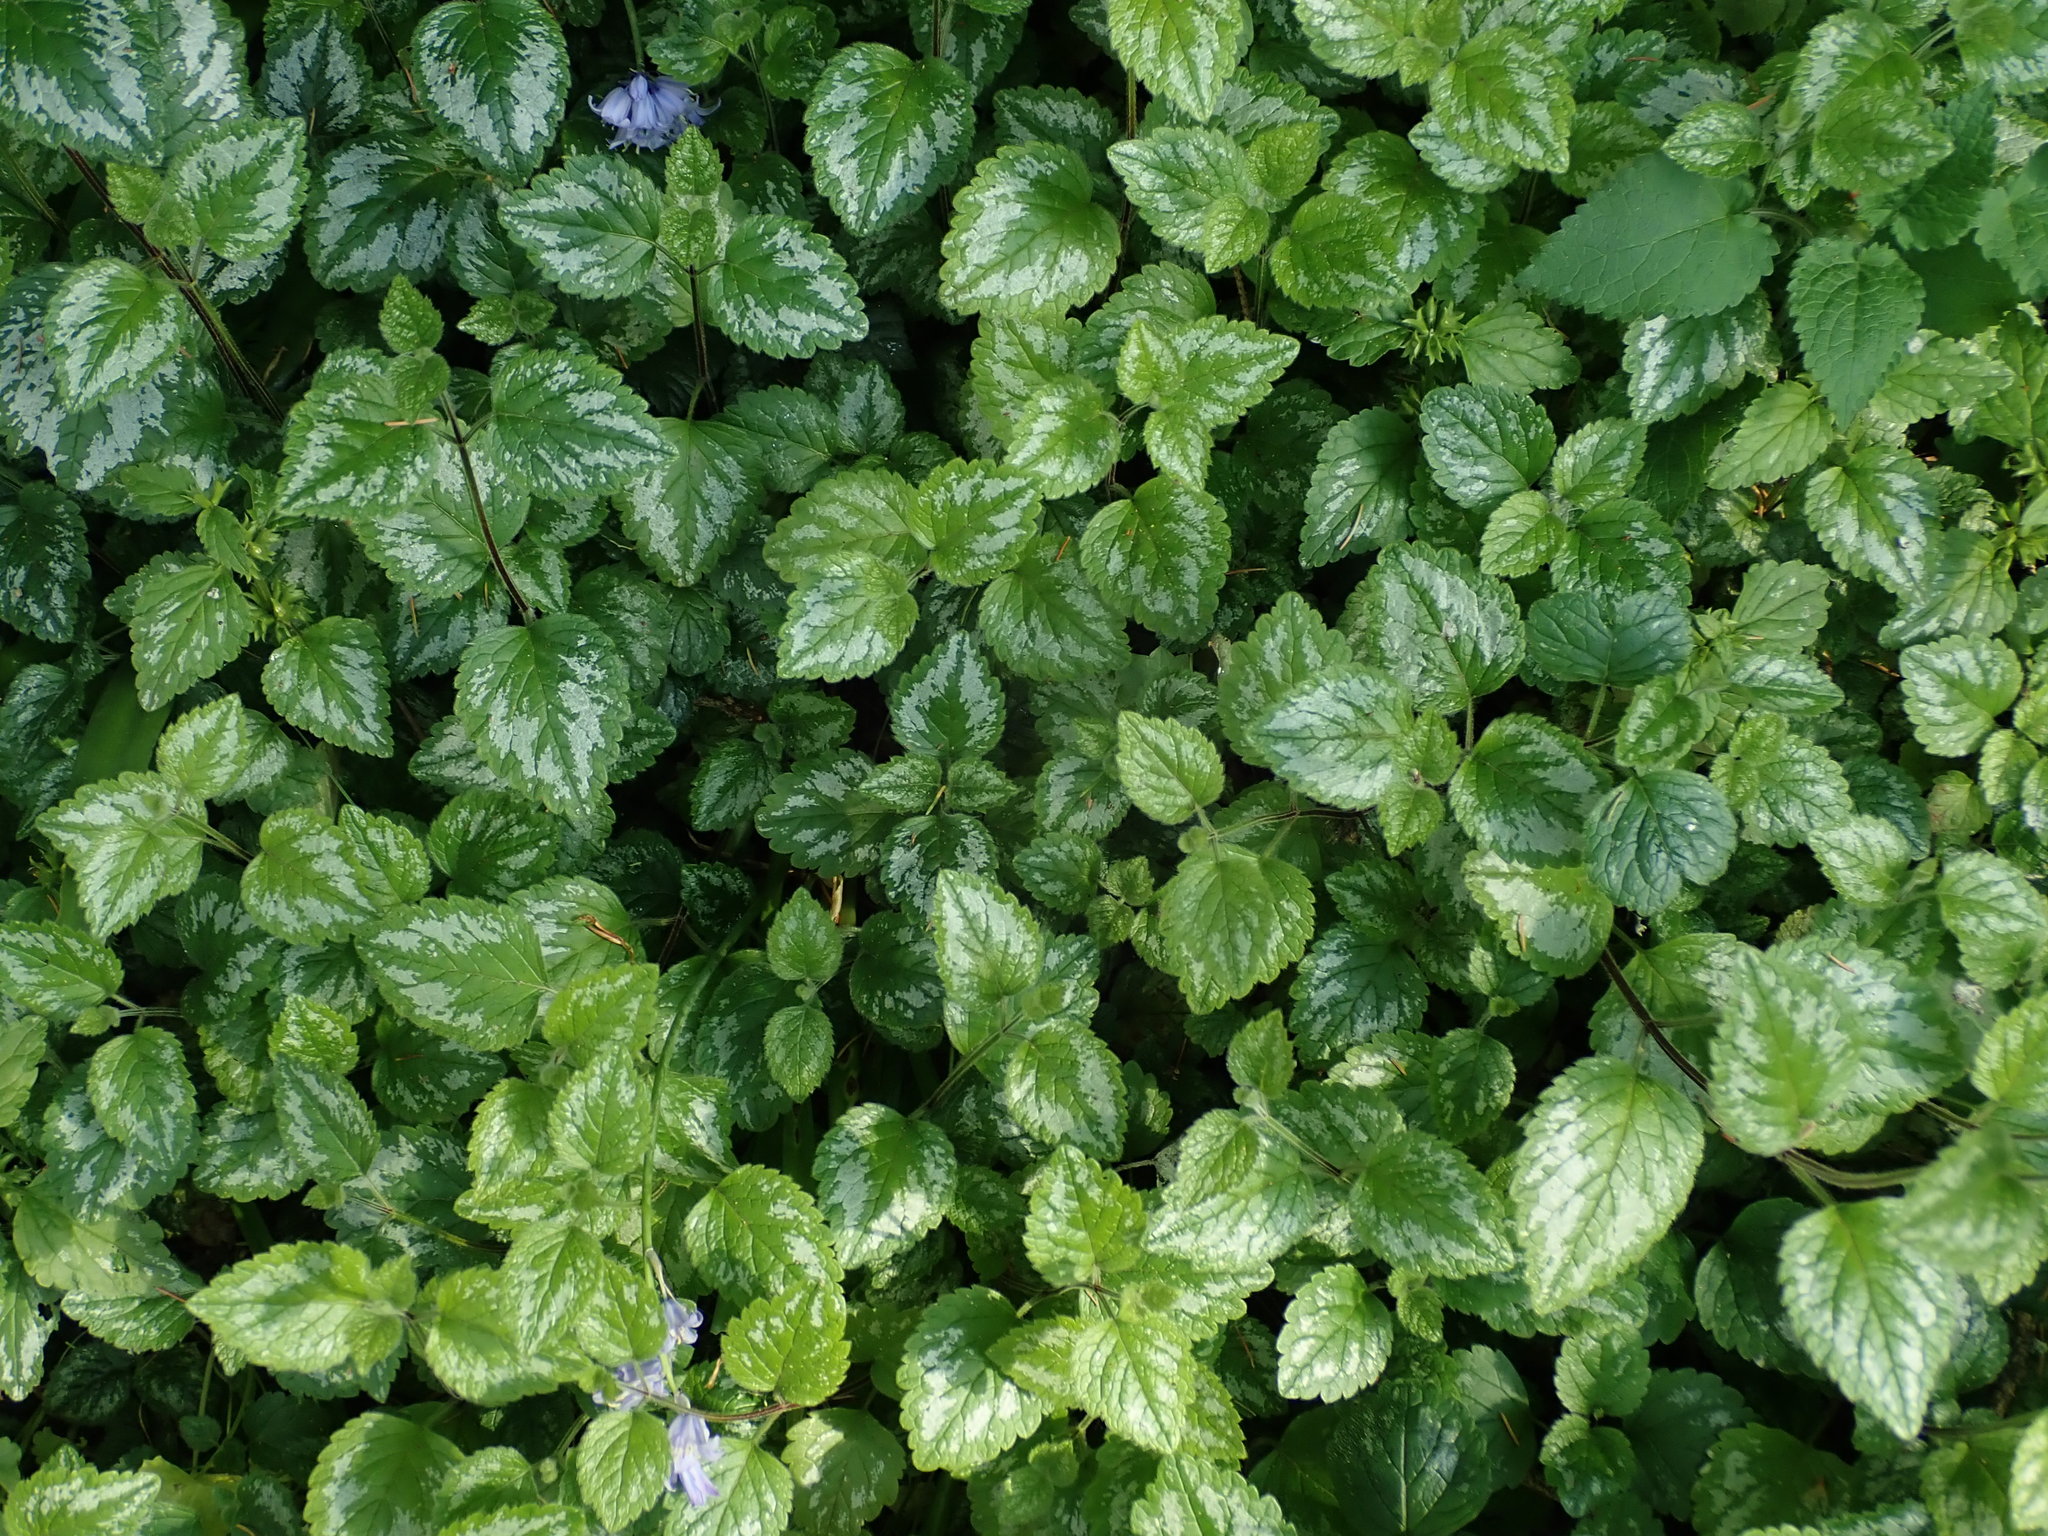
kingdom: Plantae
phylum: Tracheophyta
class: Magnoliopsida
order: Lamiales
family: Lamiaceae
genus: Lamium
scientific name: Lamium galeobdolon
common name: Yellow archangel
